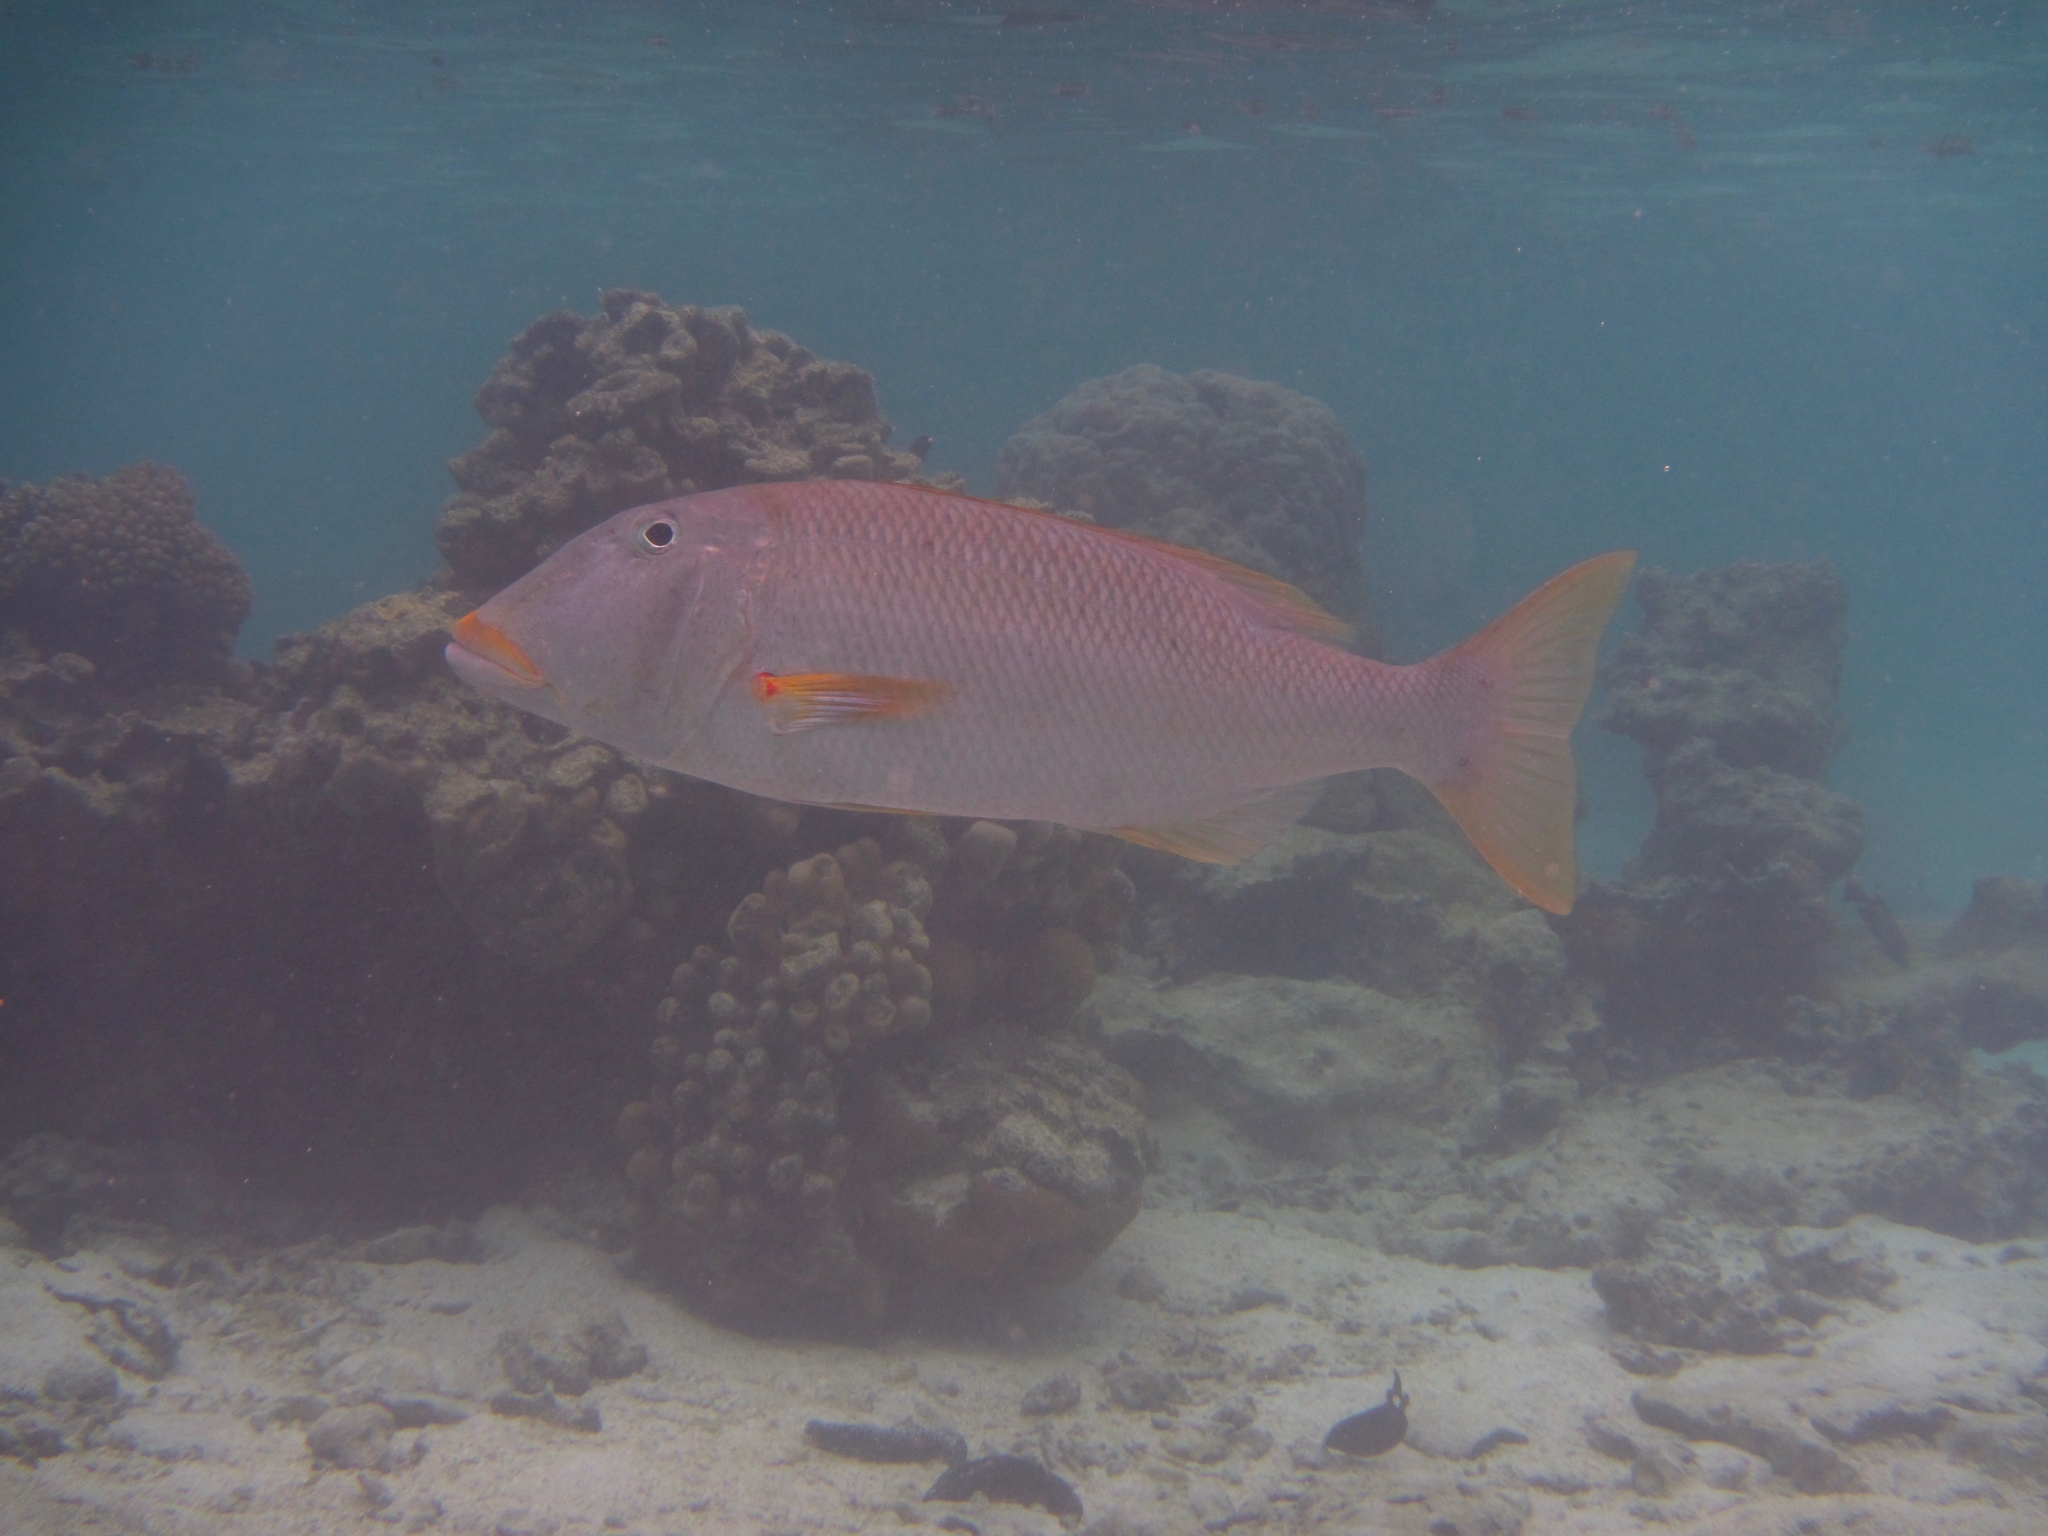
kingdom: Animalia
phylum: Chordata
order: Perciformes
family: Lethrinidae
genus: Lethrinus
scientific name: Lethrinus xanthochilus
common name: Yellowlip emperor
